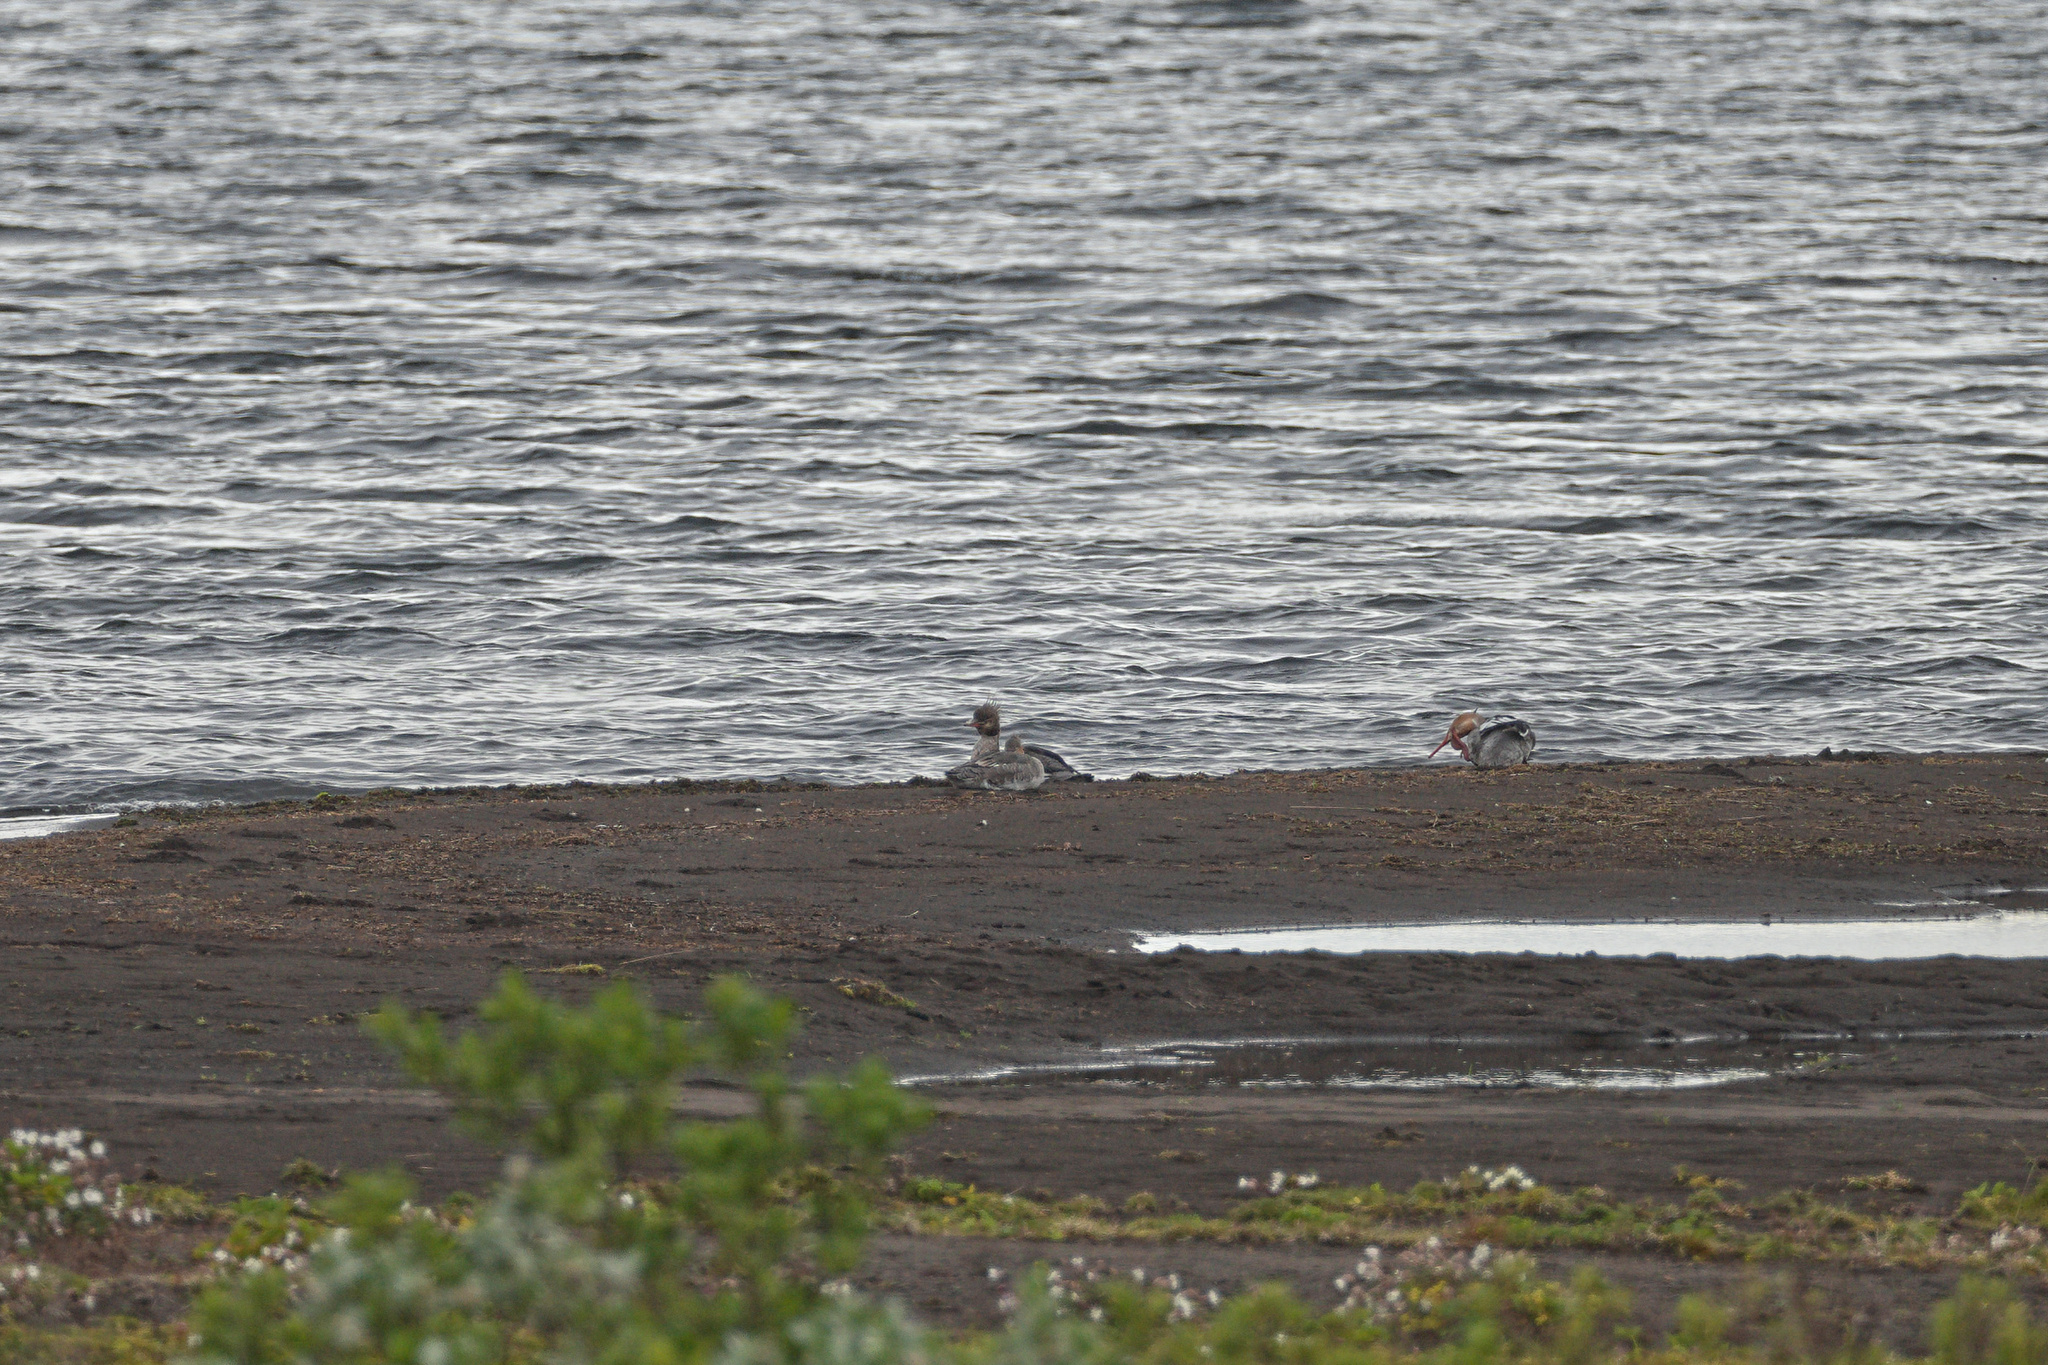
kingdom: Animalia
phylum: Chordata
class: Aves
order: Anseriformes
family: Anatidae
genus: Mergus
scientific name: Mergus serrator
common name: Red-breasted merganser
